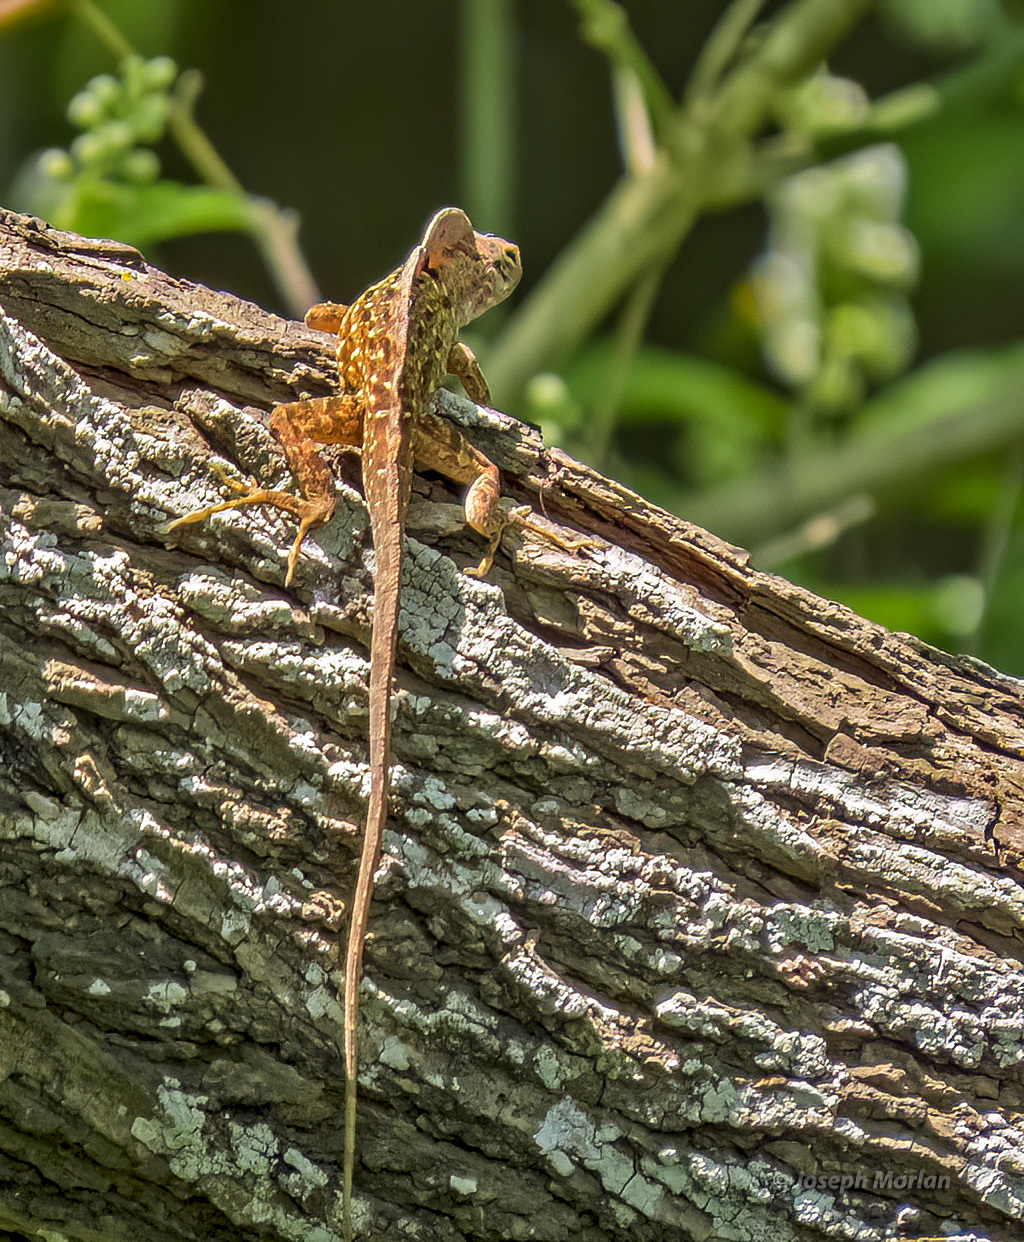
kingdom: Animalia
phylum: Chordata
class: Squamata
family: Dactyloidae
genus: Anolis
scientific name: Anolis sagrei
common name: Brown anole
